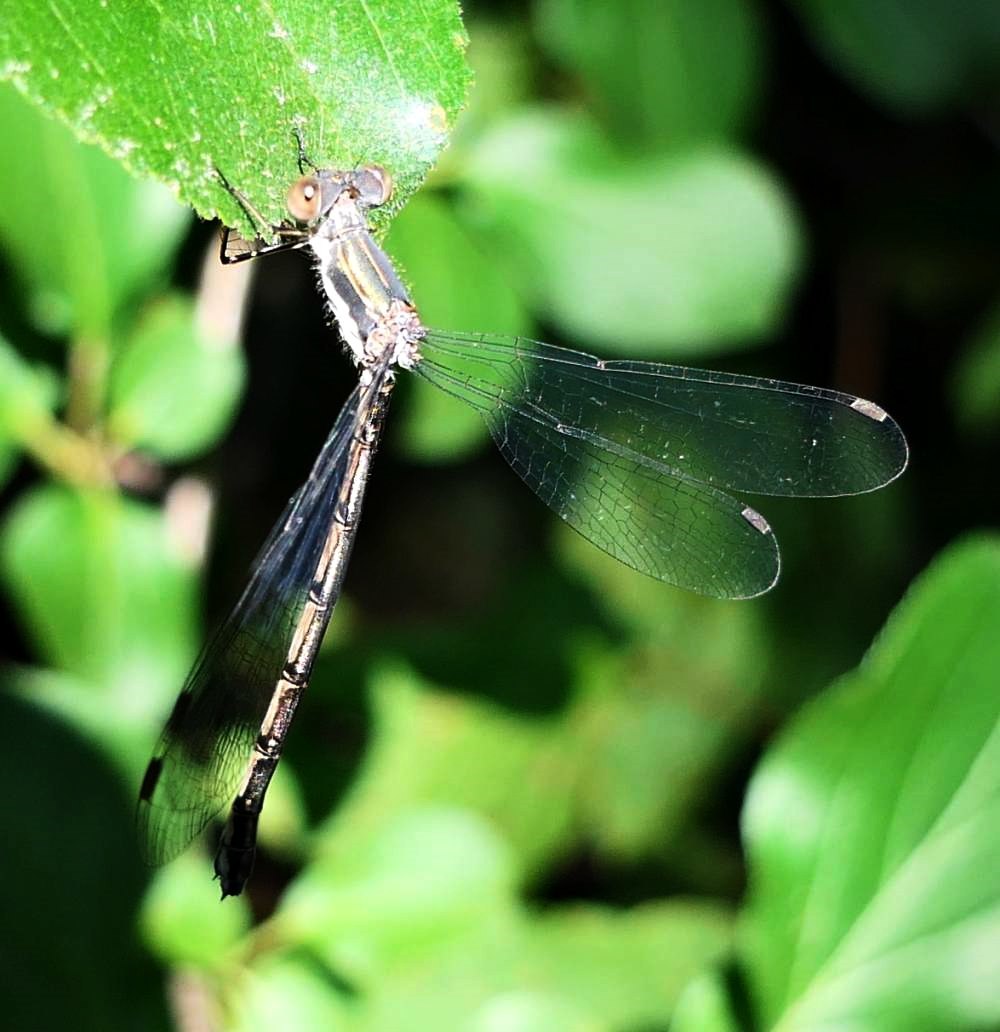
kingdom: Animalia
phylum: Arthropoda
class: Insecta
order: Odonata
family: Lestidae
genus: Lestes
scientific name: Lestes congener
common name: Spotted spreadwing
